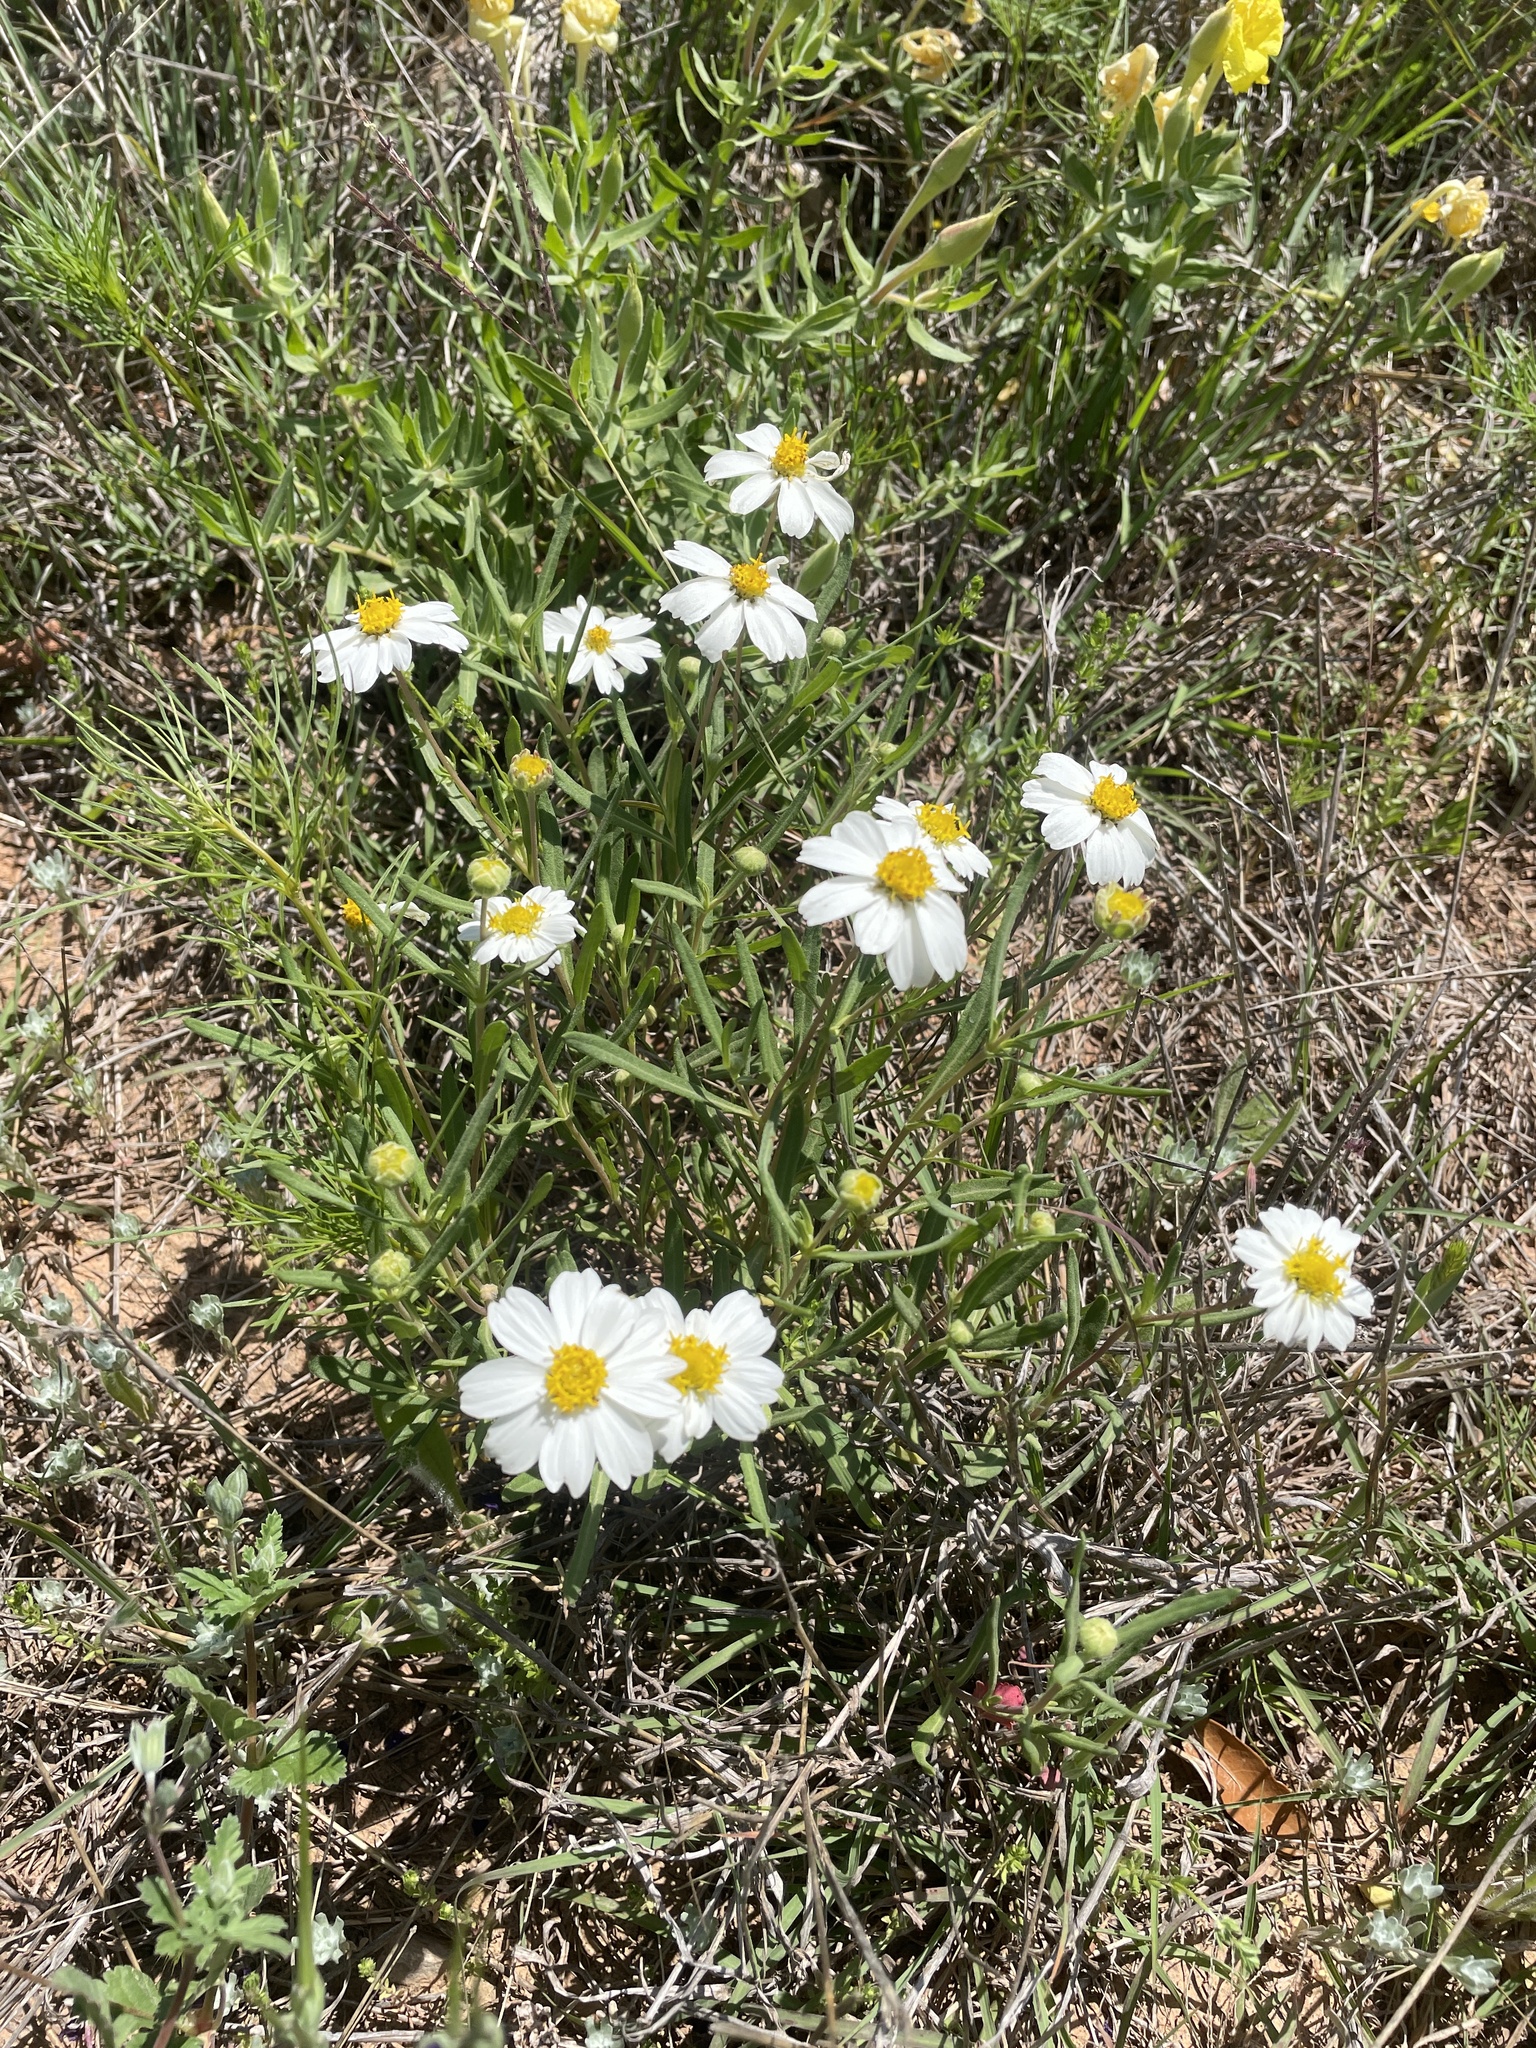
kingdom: Plantae
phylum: Tracheophyta
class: Magnoliopsida
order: Asterales
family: Asteraceae
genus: Melampodium
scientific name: Melampodium leucanthum
